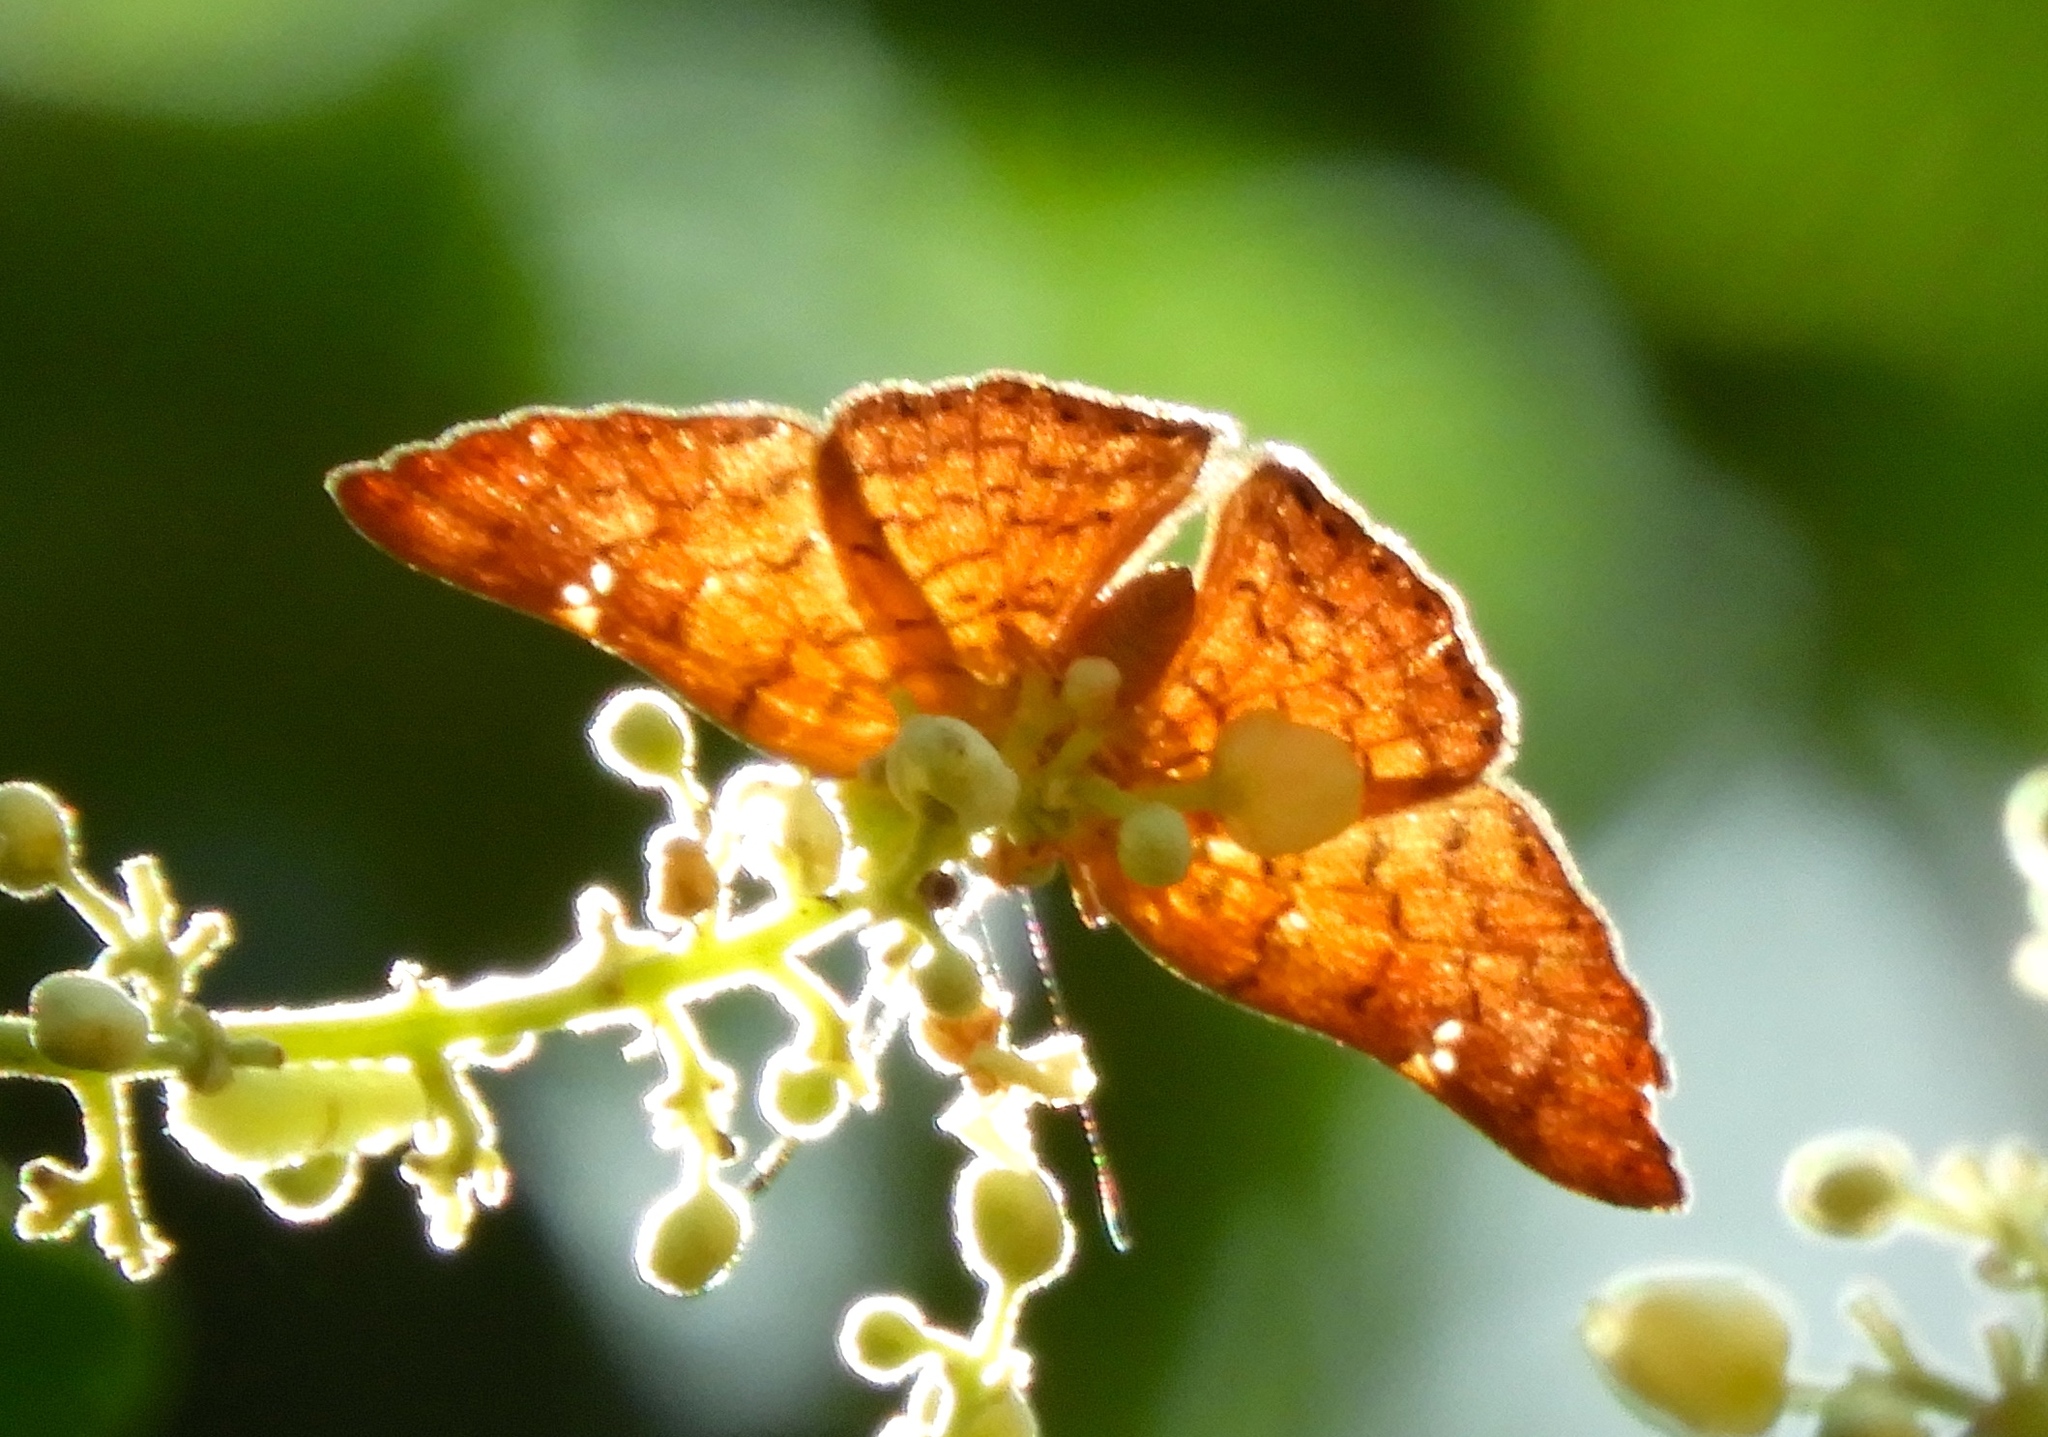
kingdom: Animalia
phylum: Arthropoda
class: Insecta
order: Lepidoptera
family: Riodinidae
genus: Curvie
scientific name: Curvie emesia
